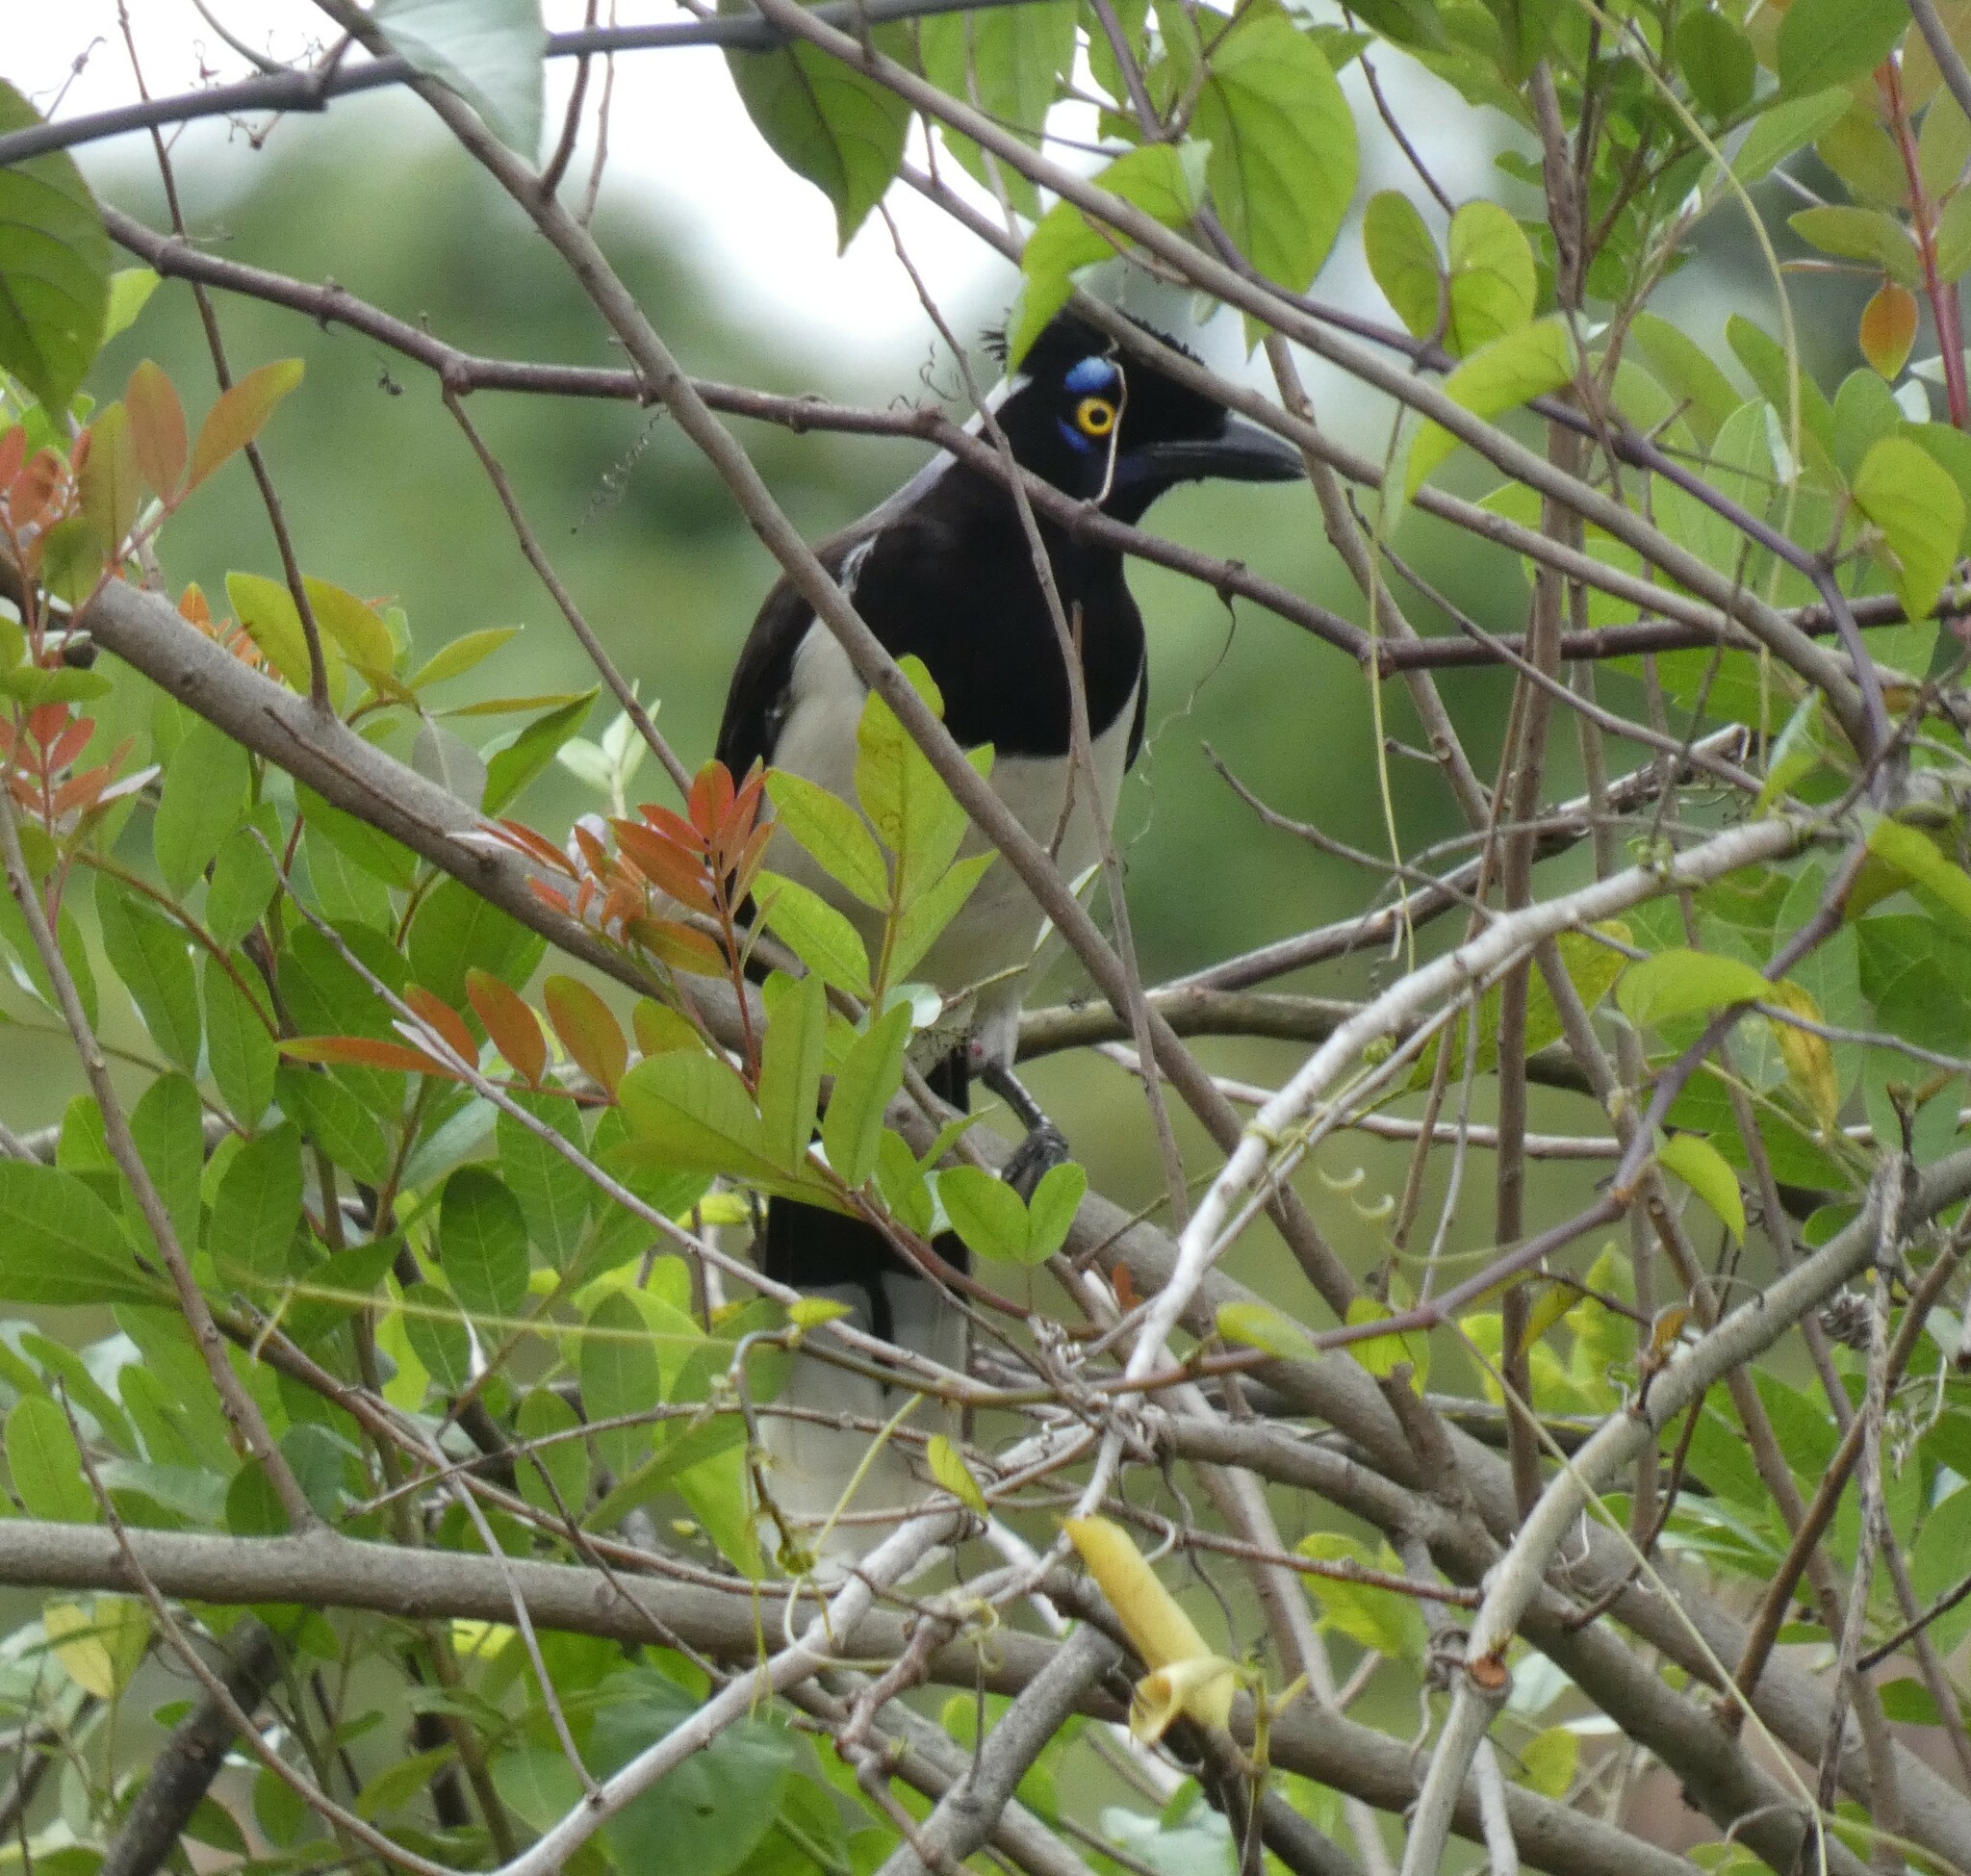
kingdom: Animalia
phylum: Chordata
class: Aves
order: Passeriformes
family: Corvidae
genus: Cyanocorax
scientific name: Cyanocorax cyanopogon
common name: White-naped jay
